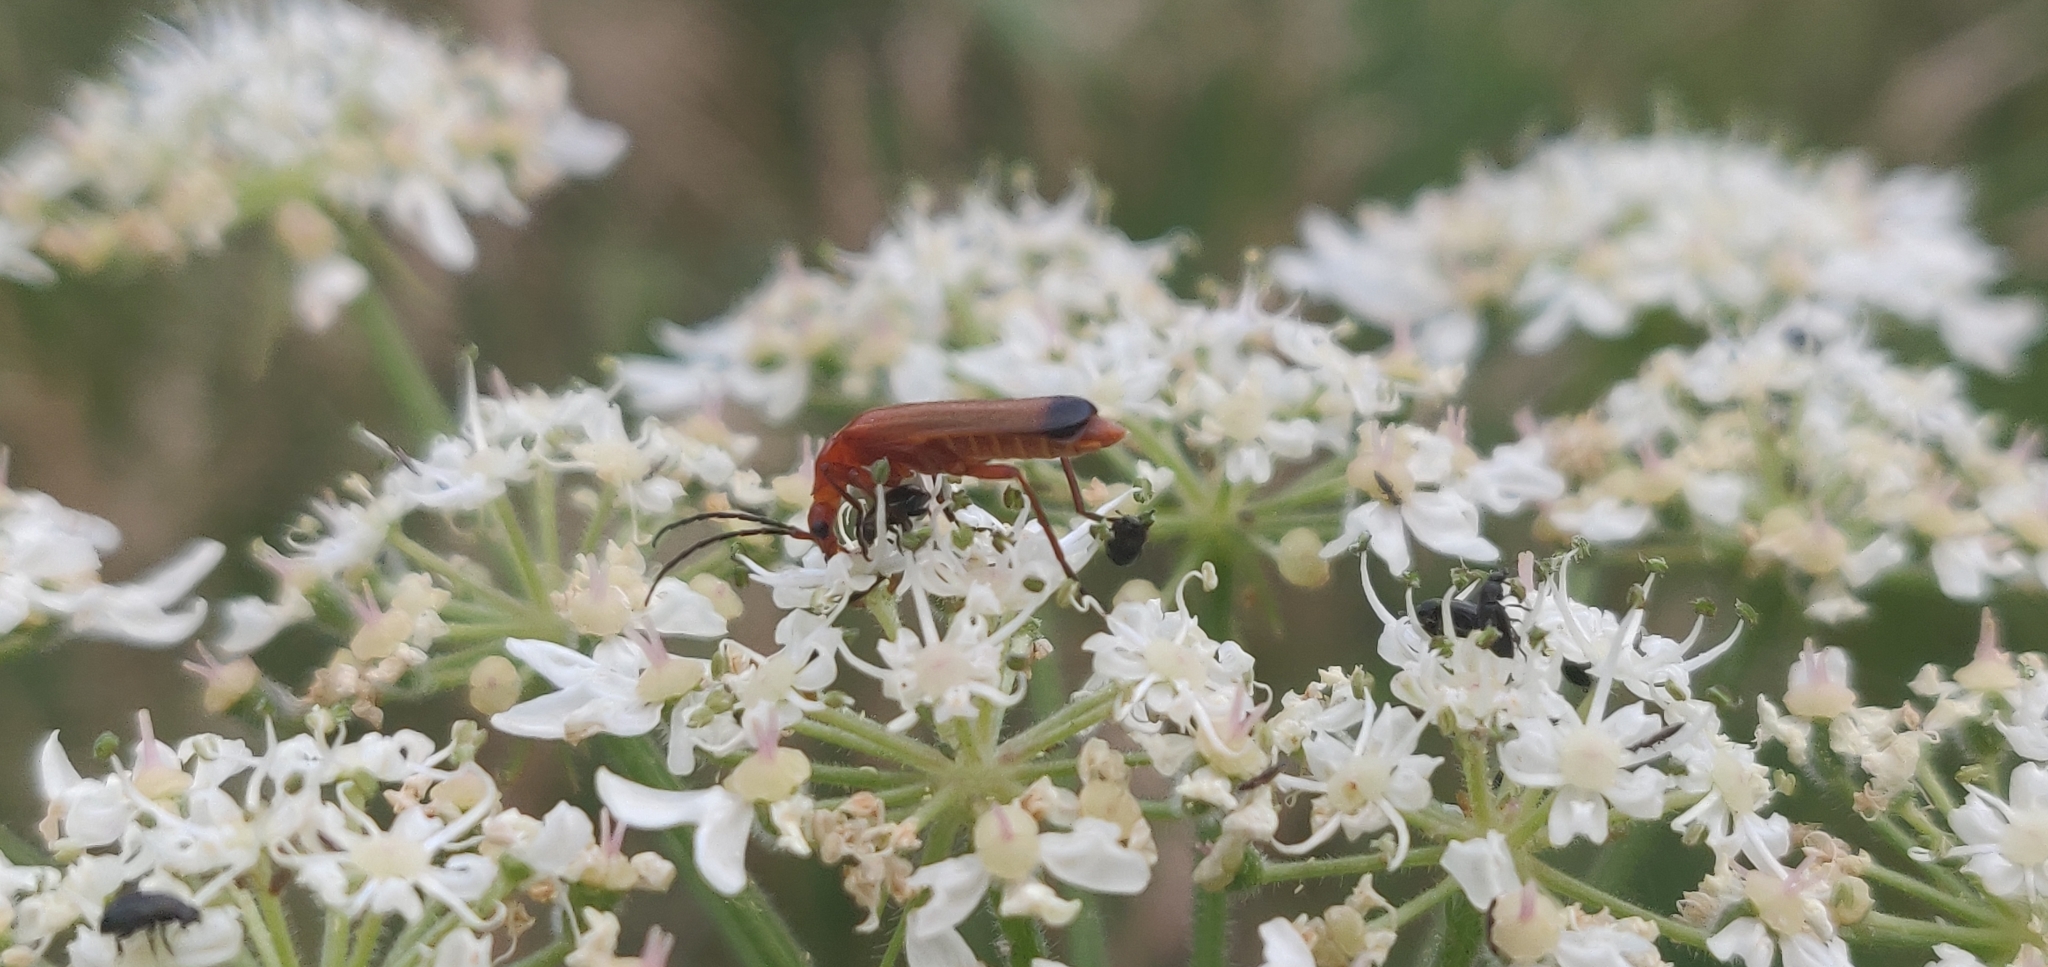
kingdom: Animalia
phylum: Arthropoda
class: Insecta
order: Coleoptera
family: Cantharidae
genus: Rhagonycha
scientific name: Rhagonycha fulva
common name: Common red soldier beetle
